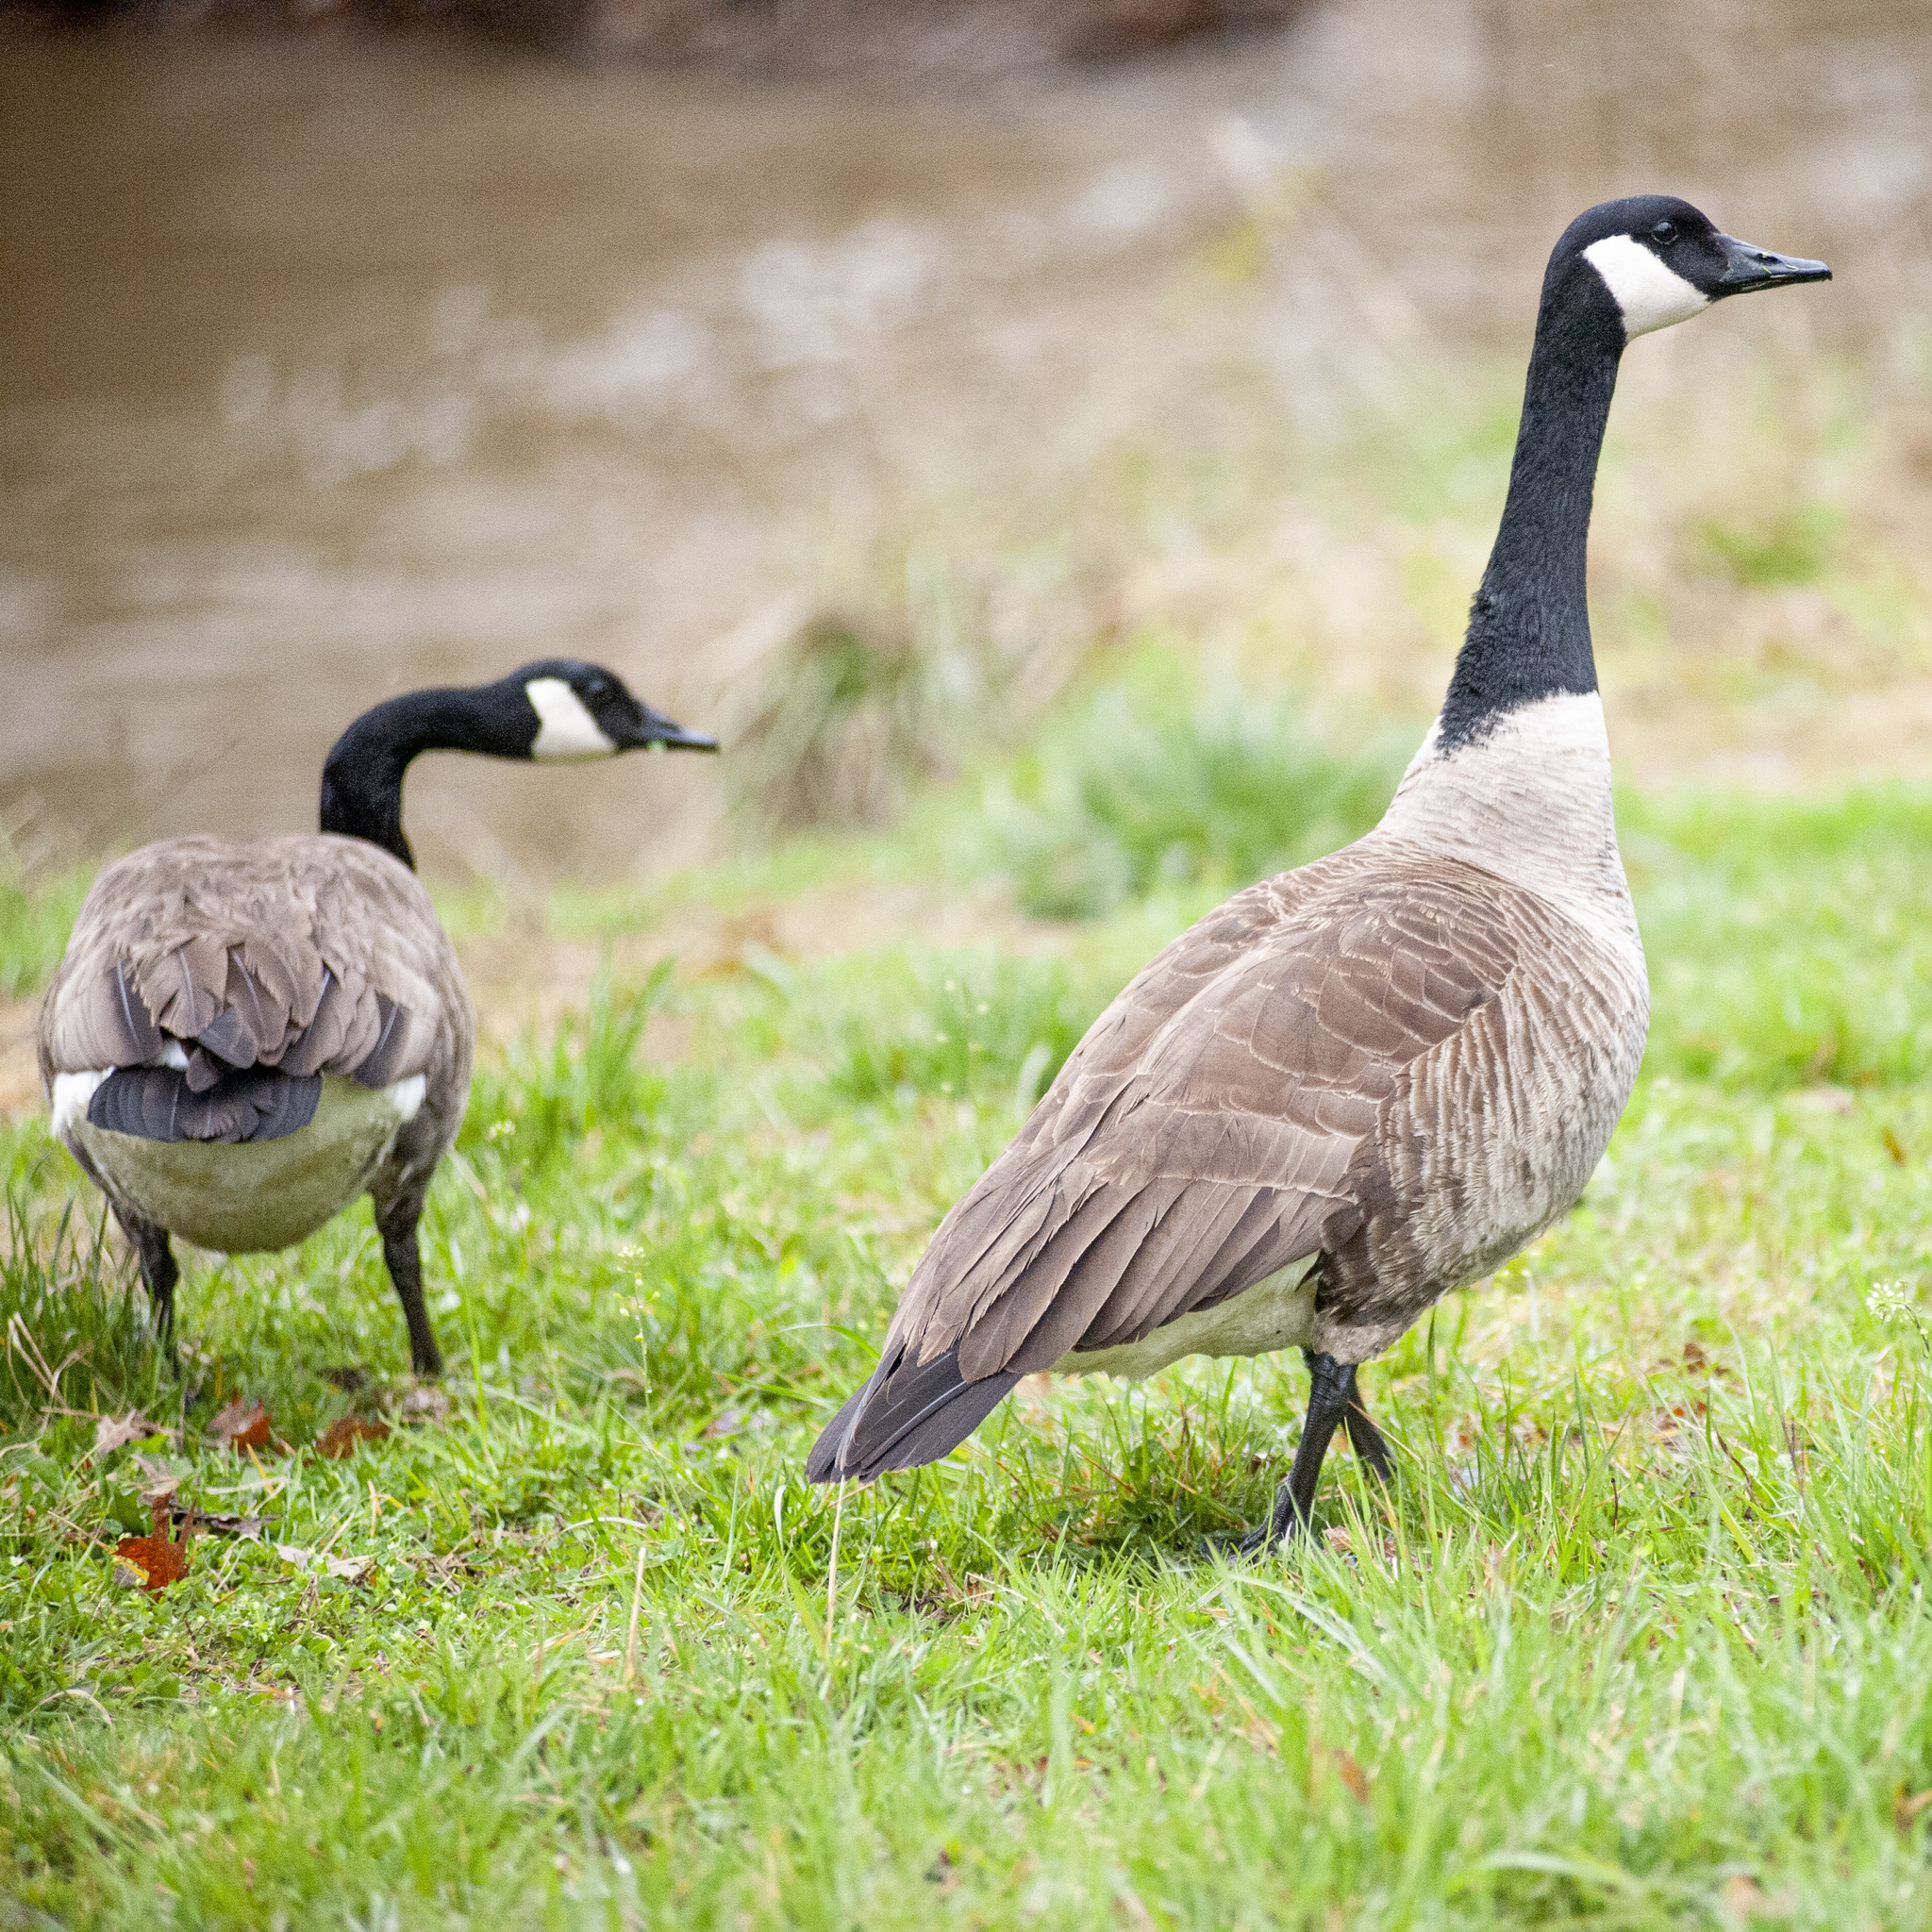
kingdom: Animalia
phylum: Chordata
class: Aves
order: Anseriformes
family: Anatidae
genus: Branta
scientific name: Branta canadensis
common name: Canada goose
